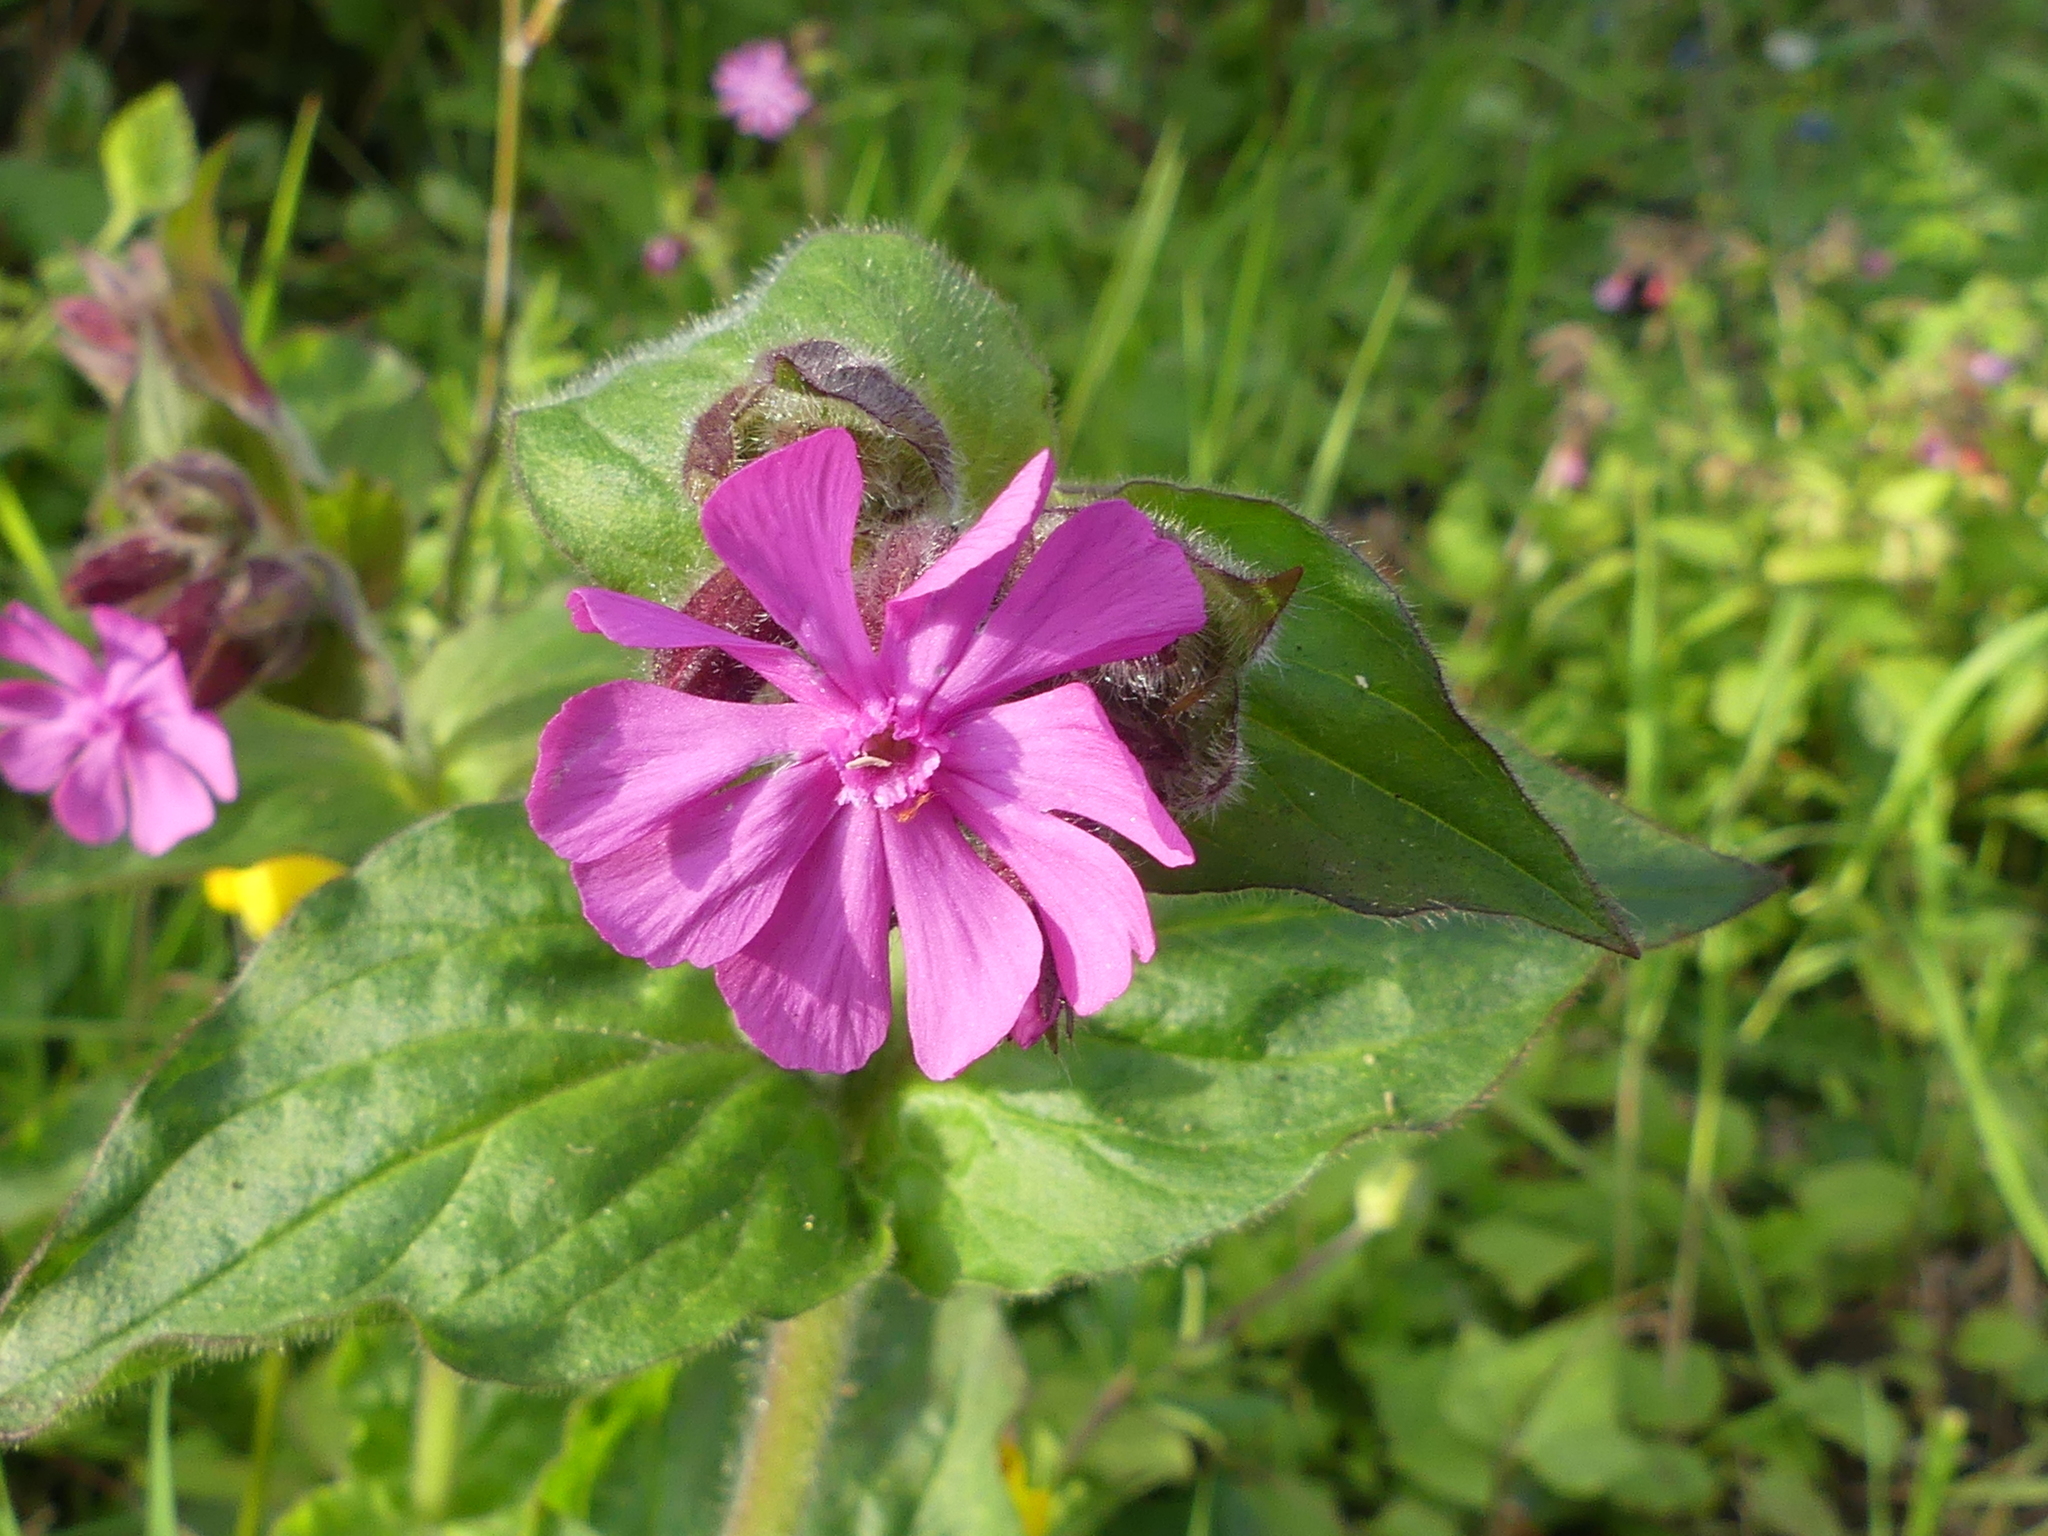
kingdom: Plantae
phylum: Tracheophyta
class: Magnoliopsida
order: Caryophyllales
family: Caryophyllaceae
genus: Silene
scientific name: Silene dioica
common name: Red campion
